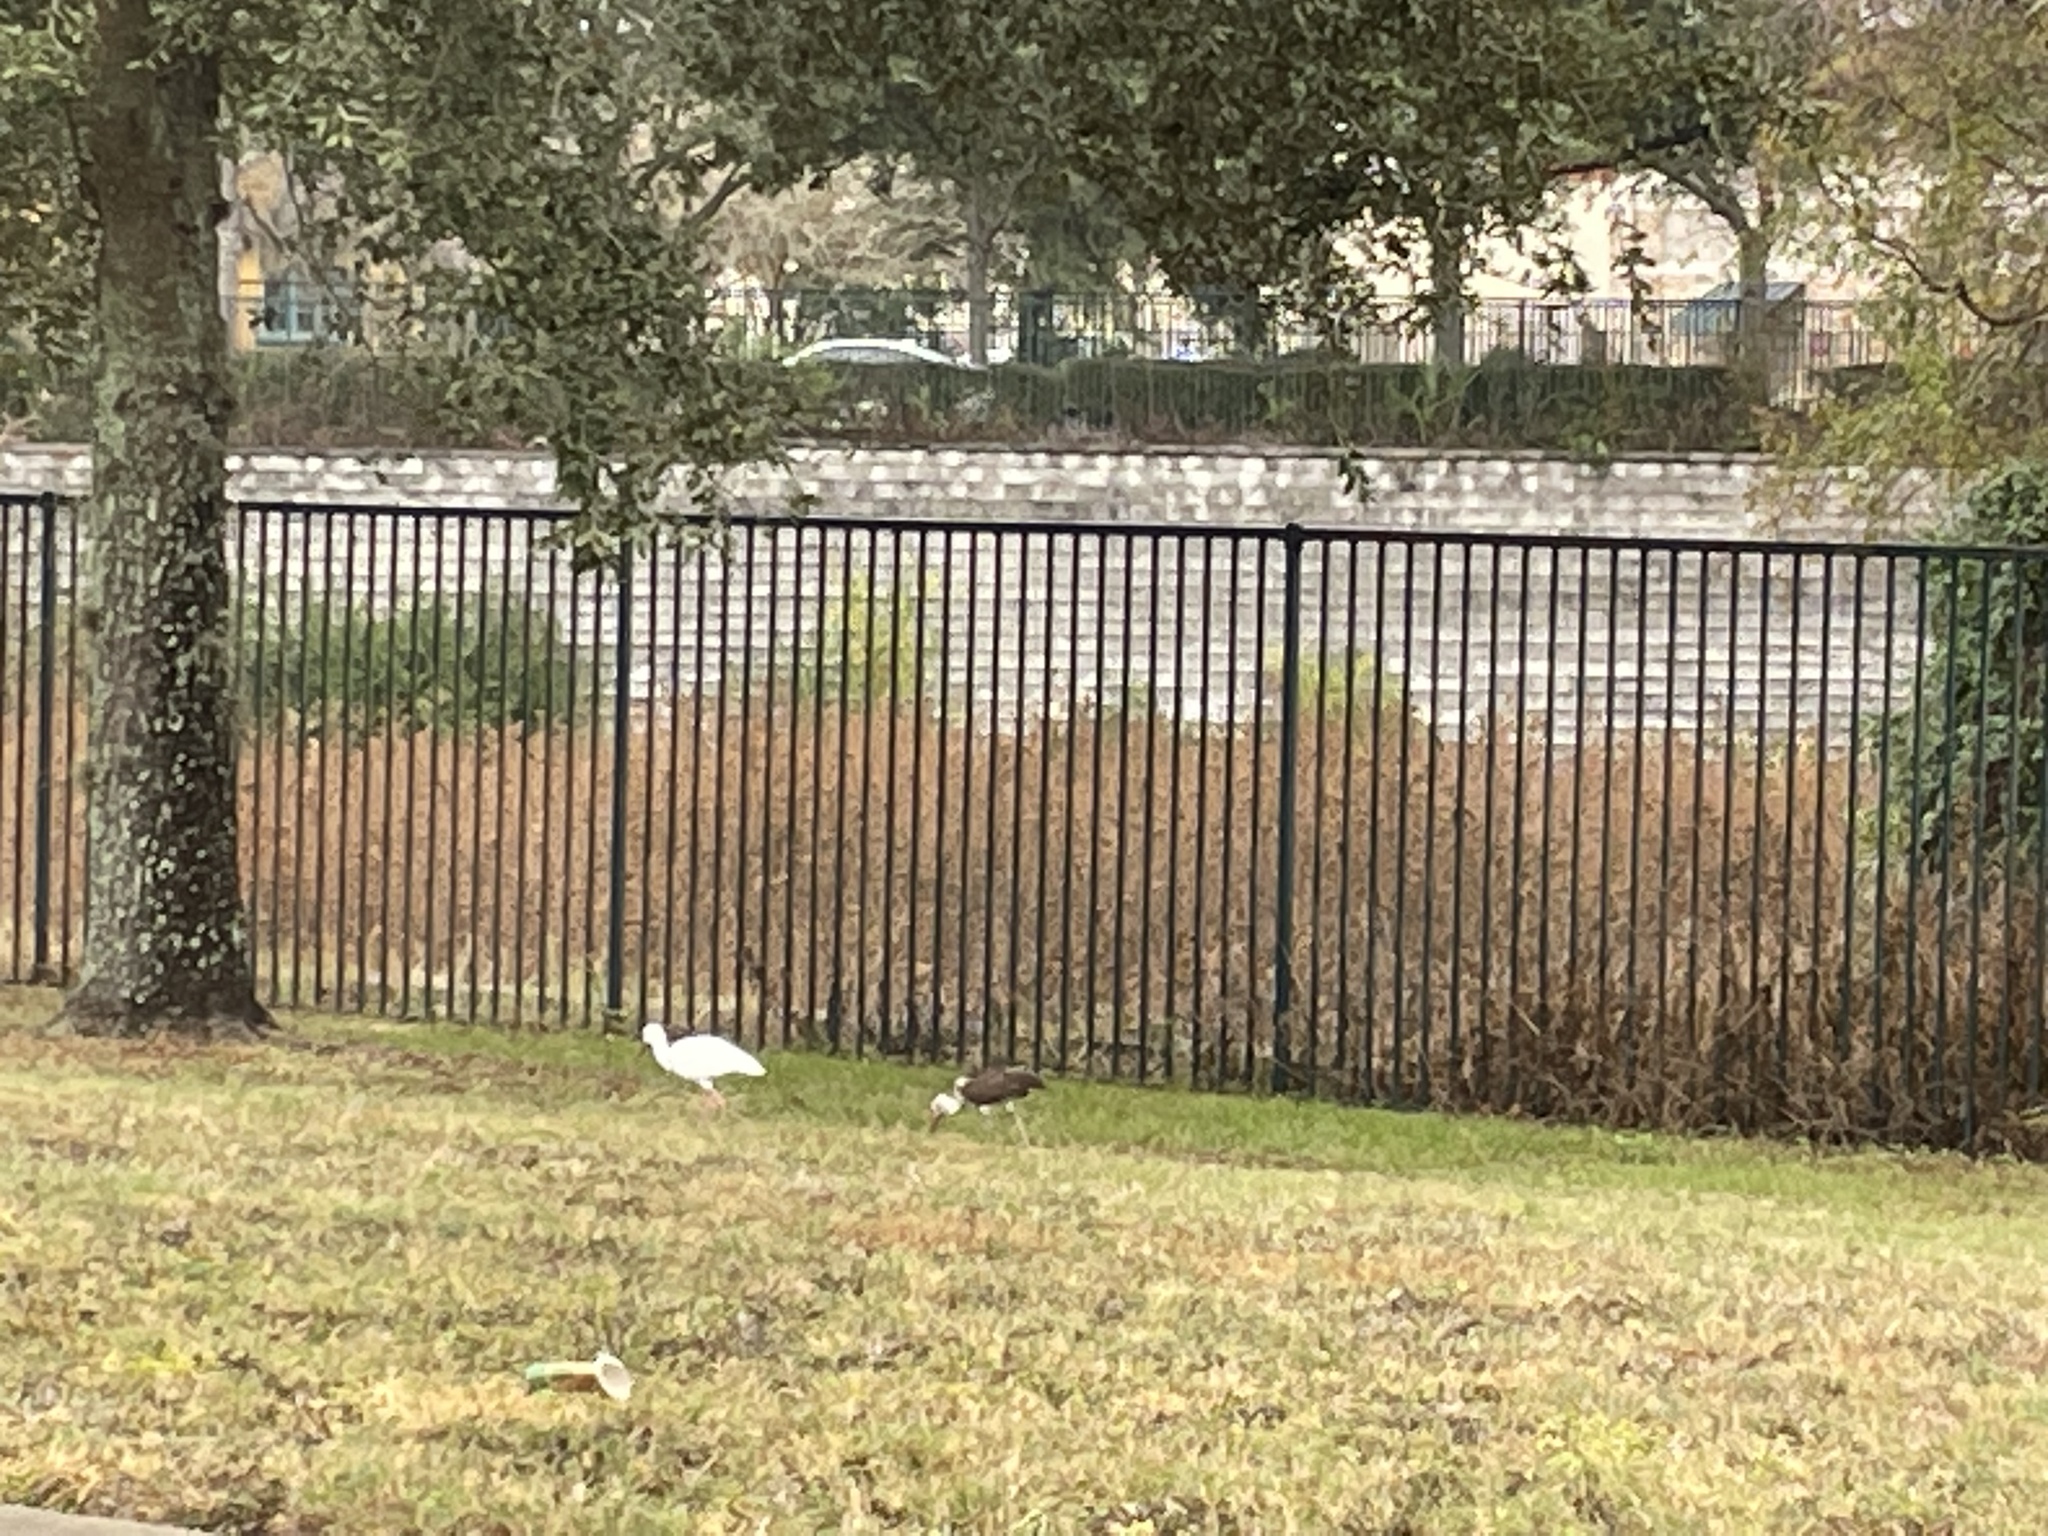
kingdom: Animalia
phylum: Chordata
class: Aves
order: Pelecaniformes
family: Threskiornithidae
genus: Eudocimus
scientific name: Eudocimus albus
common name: White ibis
